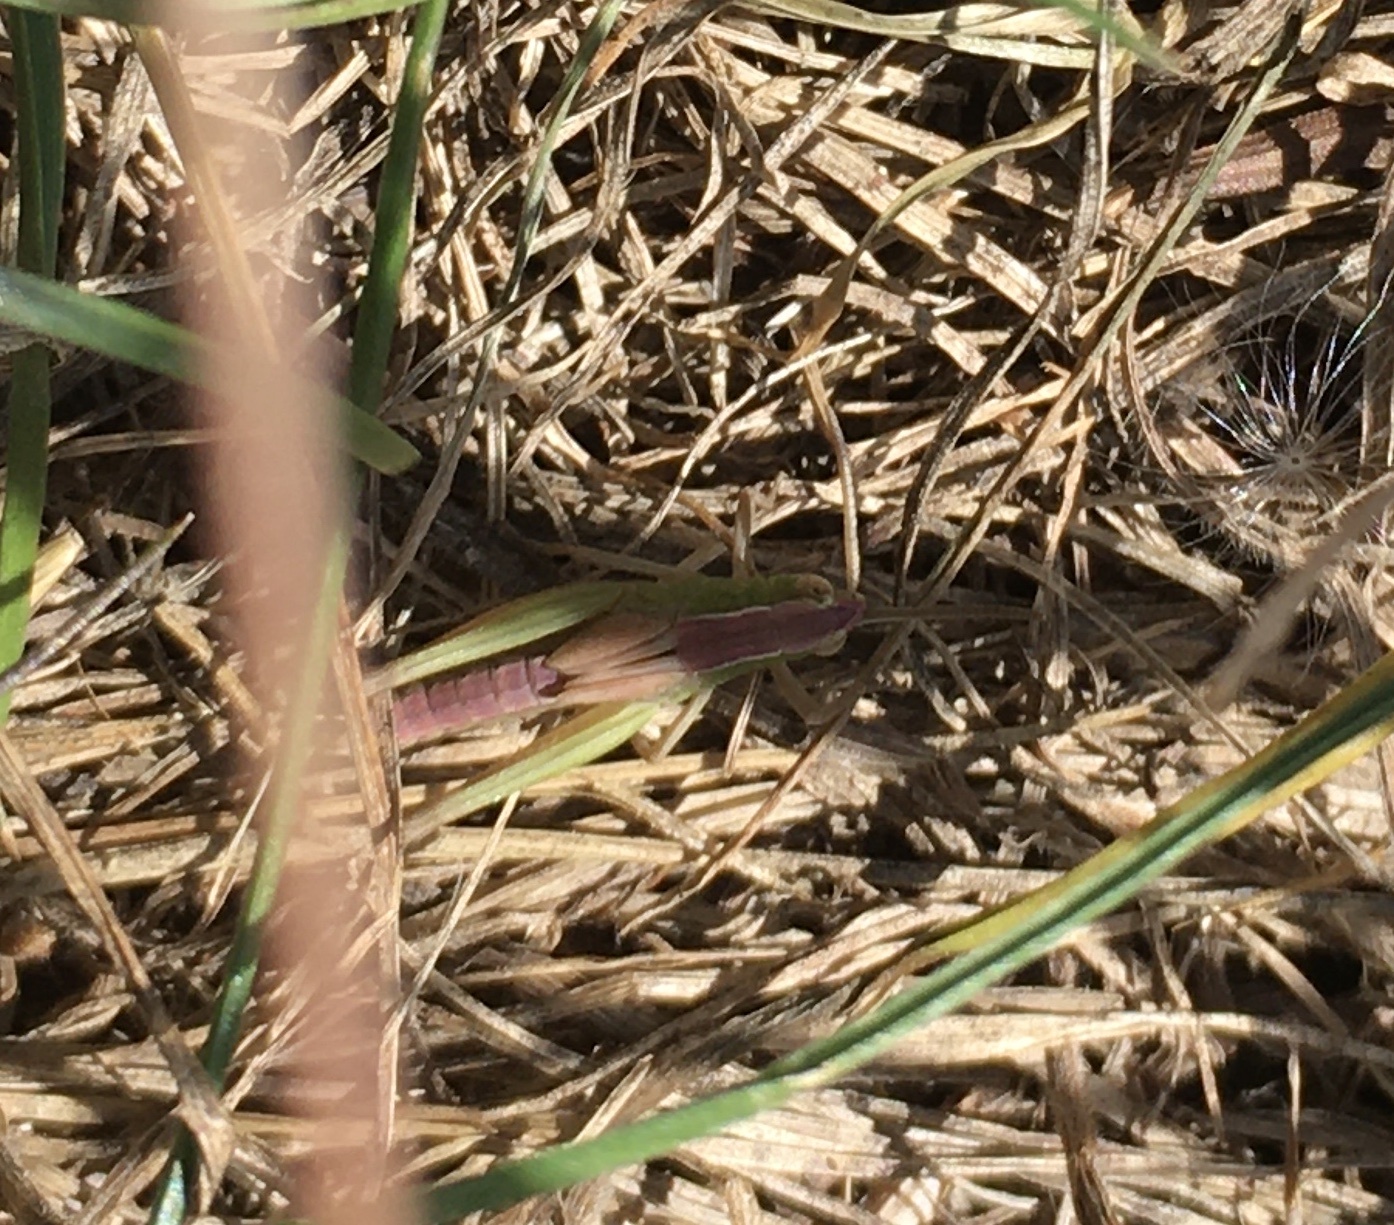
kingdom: Animalia
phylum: Arthropoda
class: Insecta
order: Orthoptera
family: Acrididae
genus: Chorthippus
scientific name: Chorthippus albomarginatus
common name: Lesser marsh grasshopper
